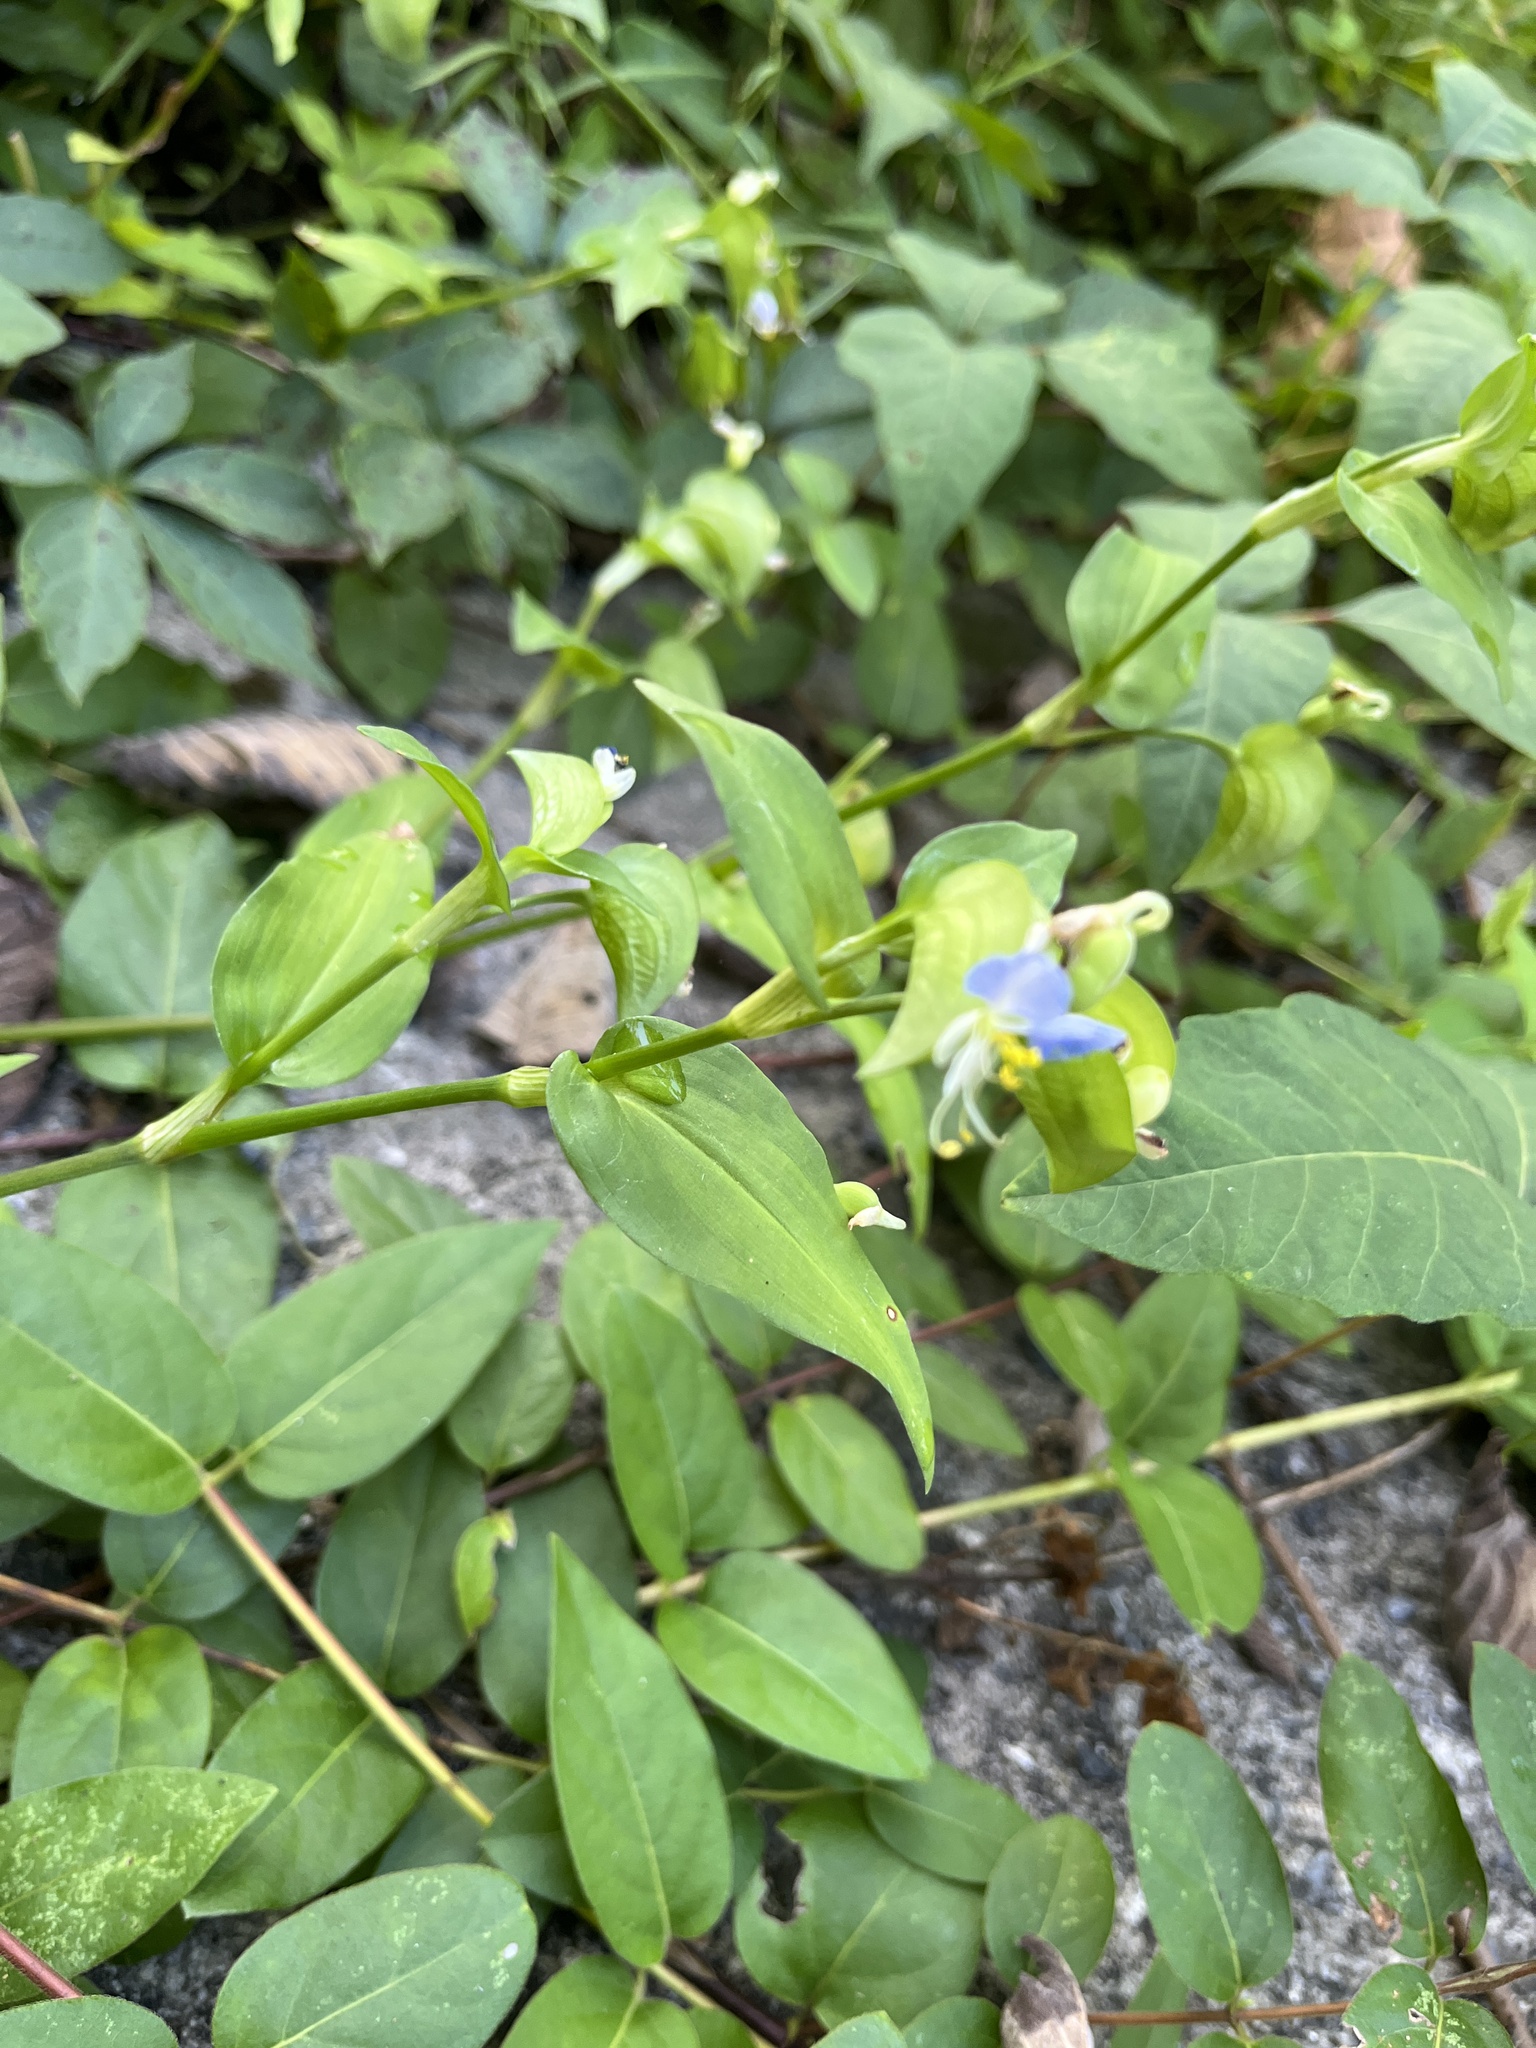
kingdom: Plantae
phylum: Tracheophyta
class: Liliopsida
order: Commelinales
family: Commelinaceae
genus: Commelina
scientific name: Commelina communis
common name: Asiatic dayflower
